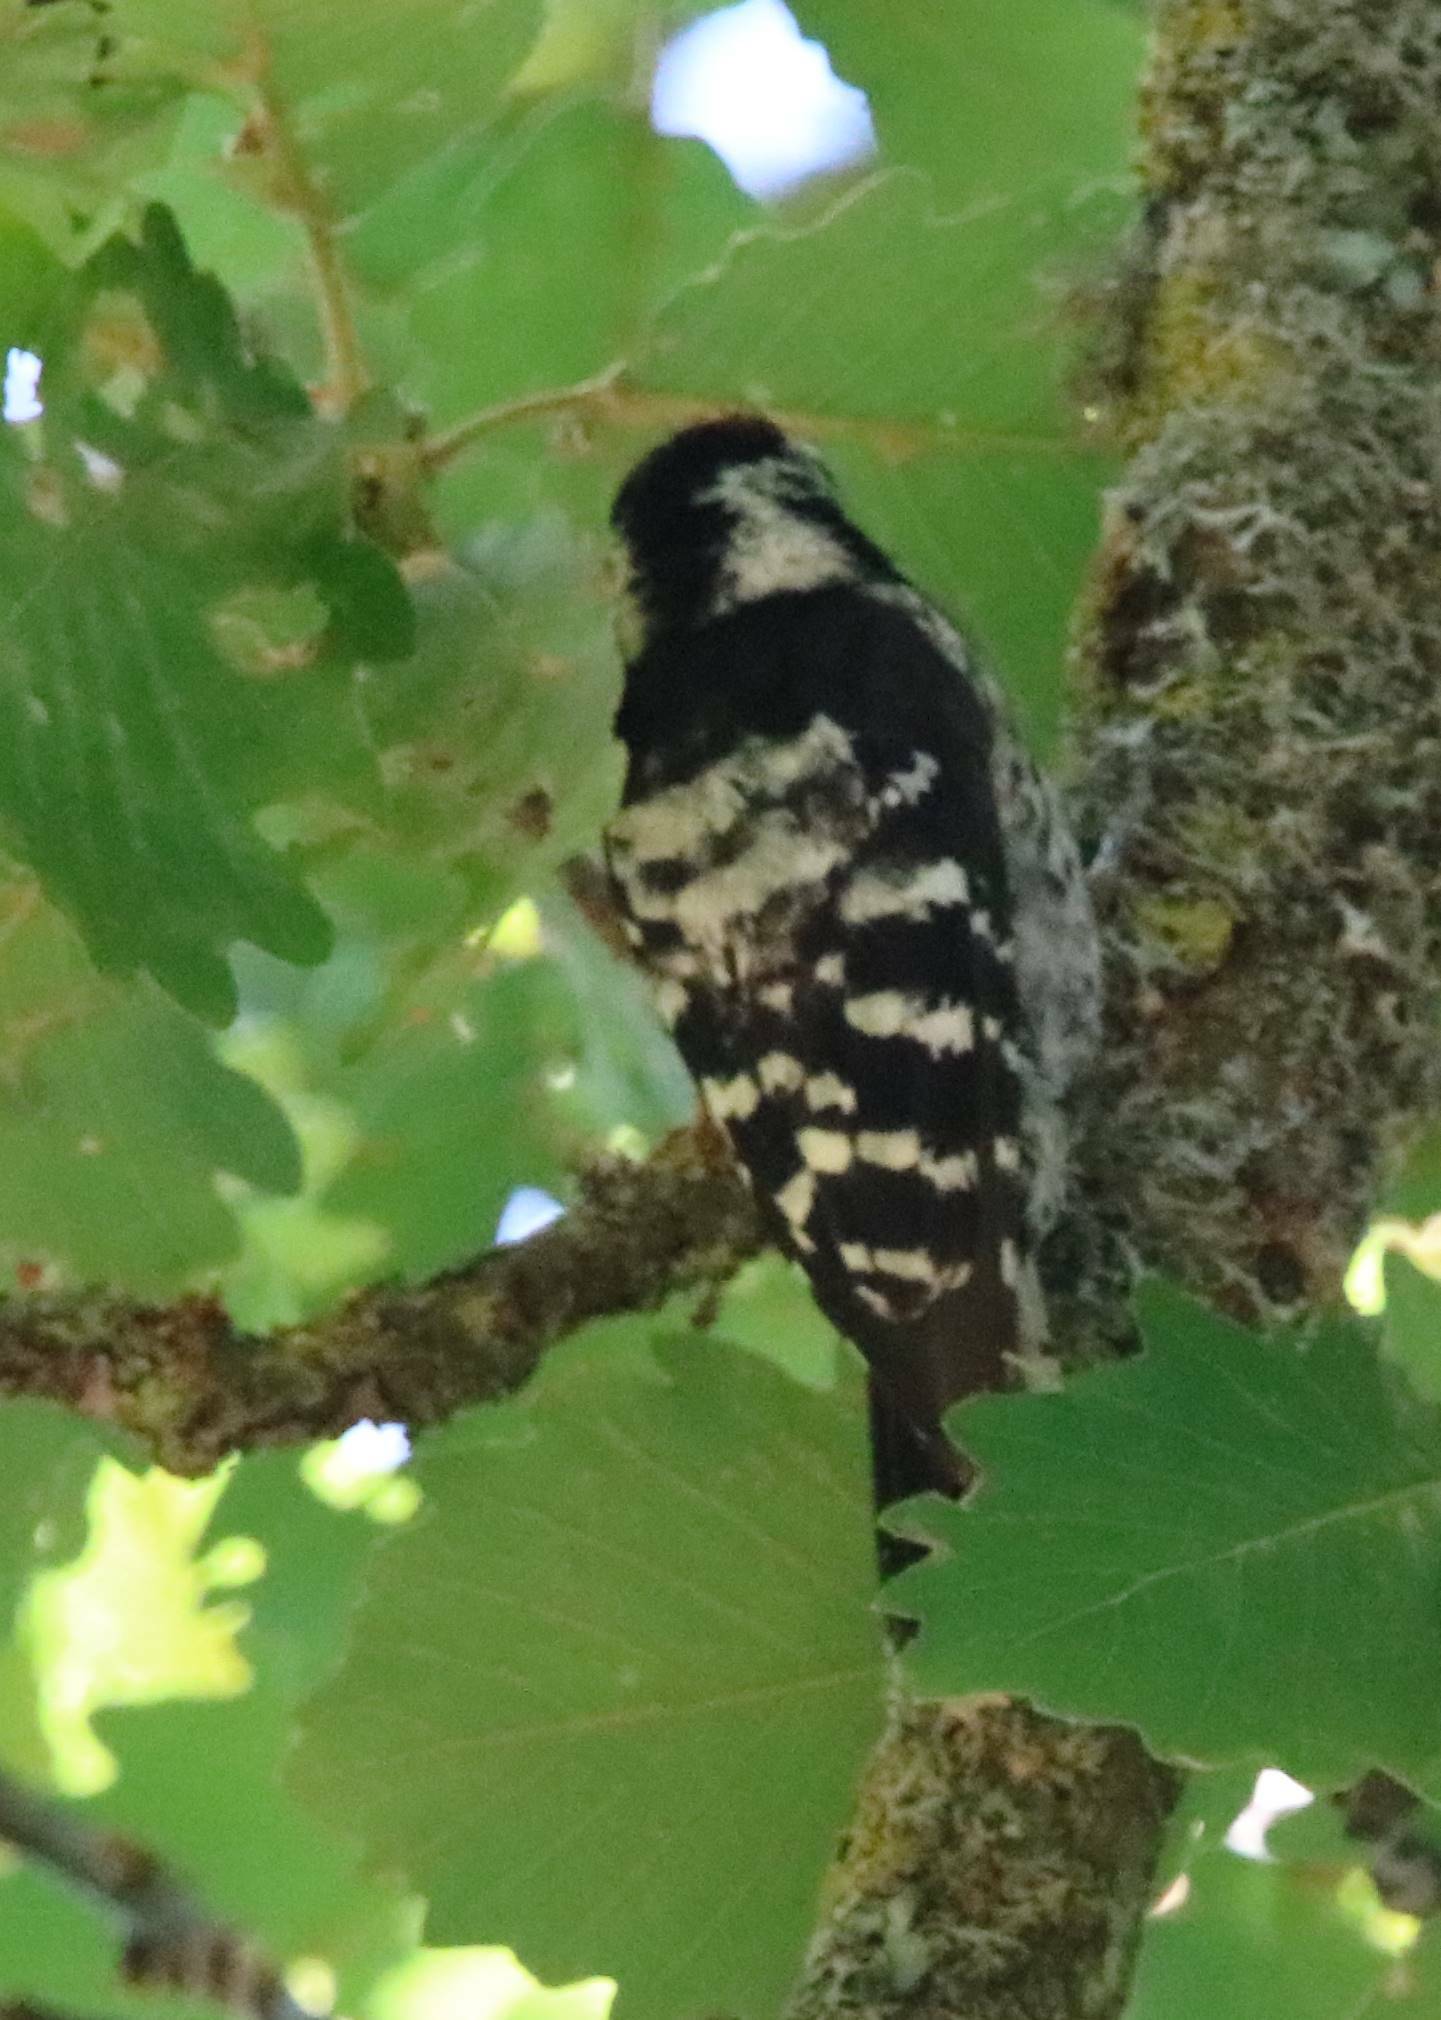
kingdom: Animalia
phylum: Chordata
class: Aves
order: Piciformes
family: Picidae
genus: Dryobates
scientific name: Dryobates minor
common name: Lesser spotted woodpecker
